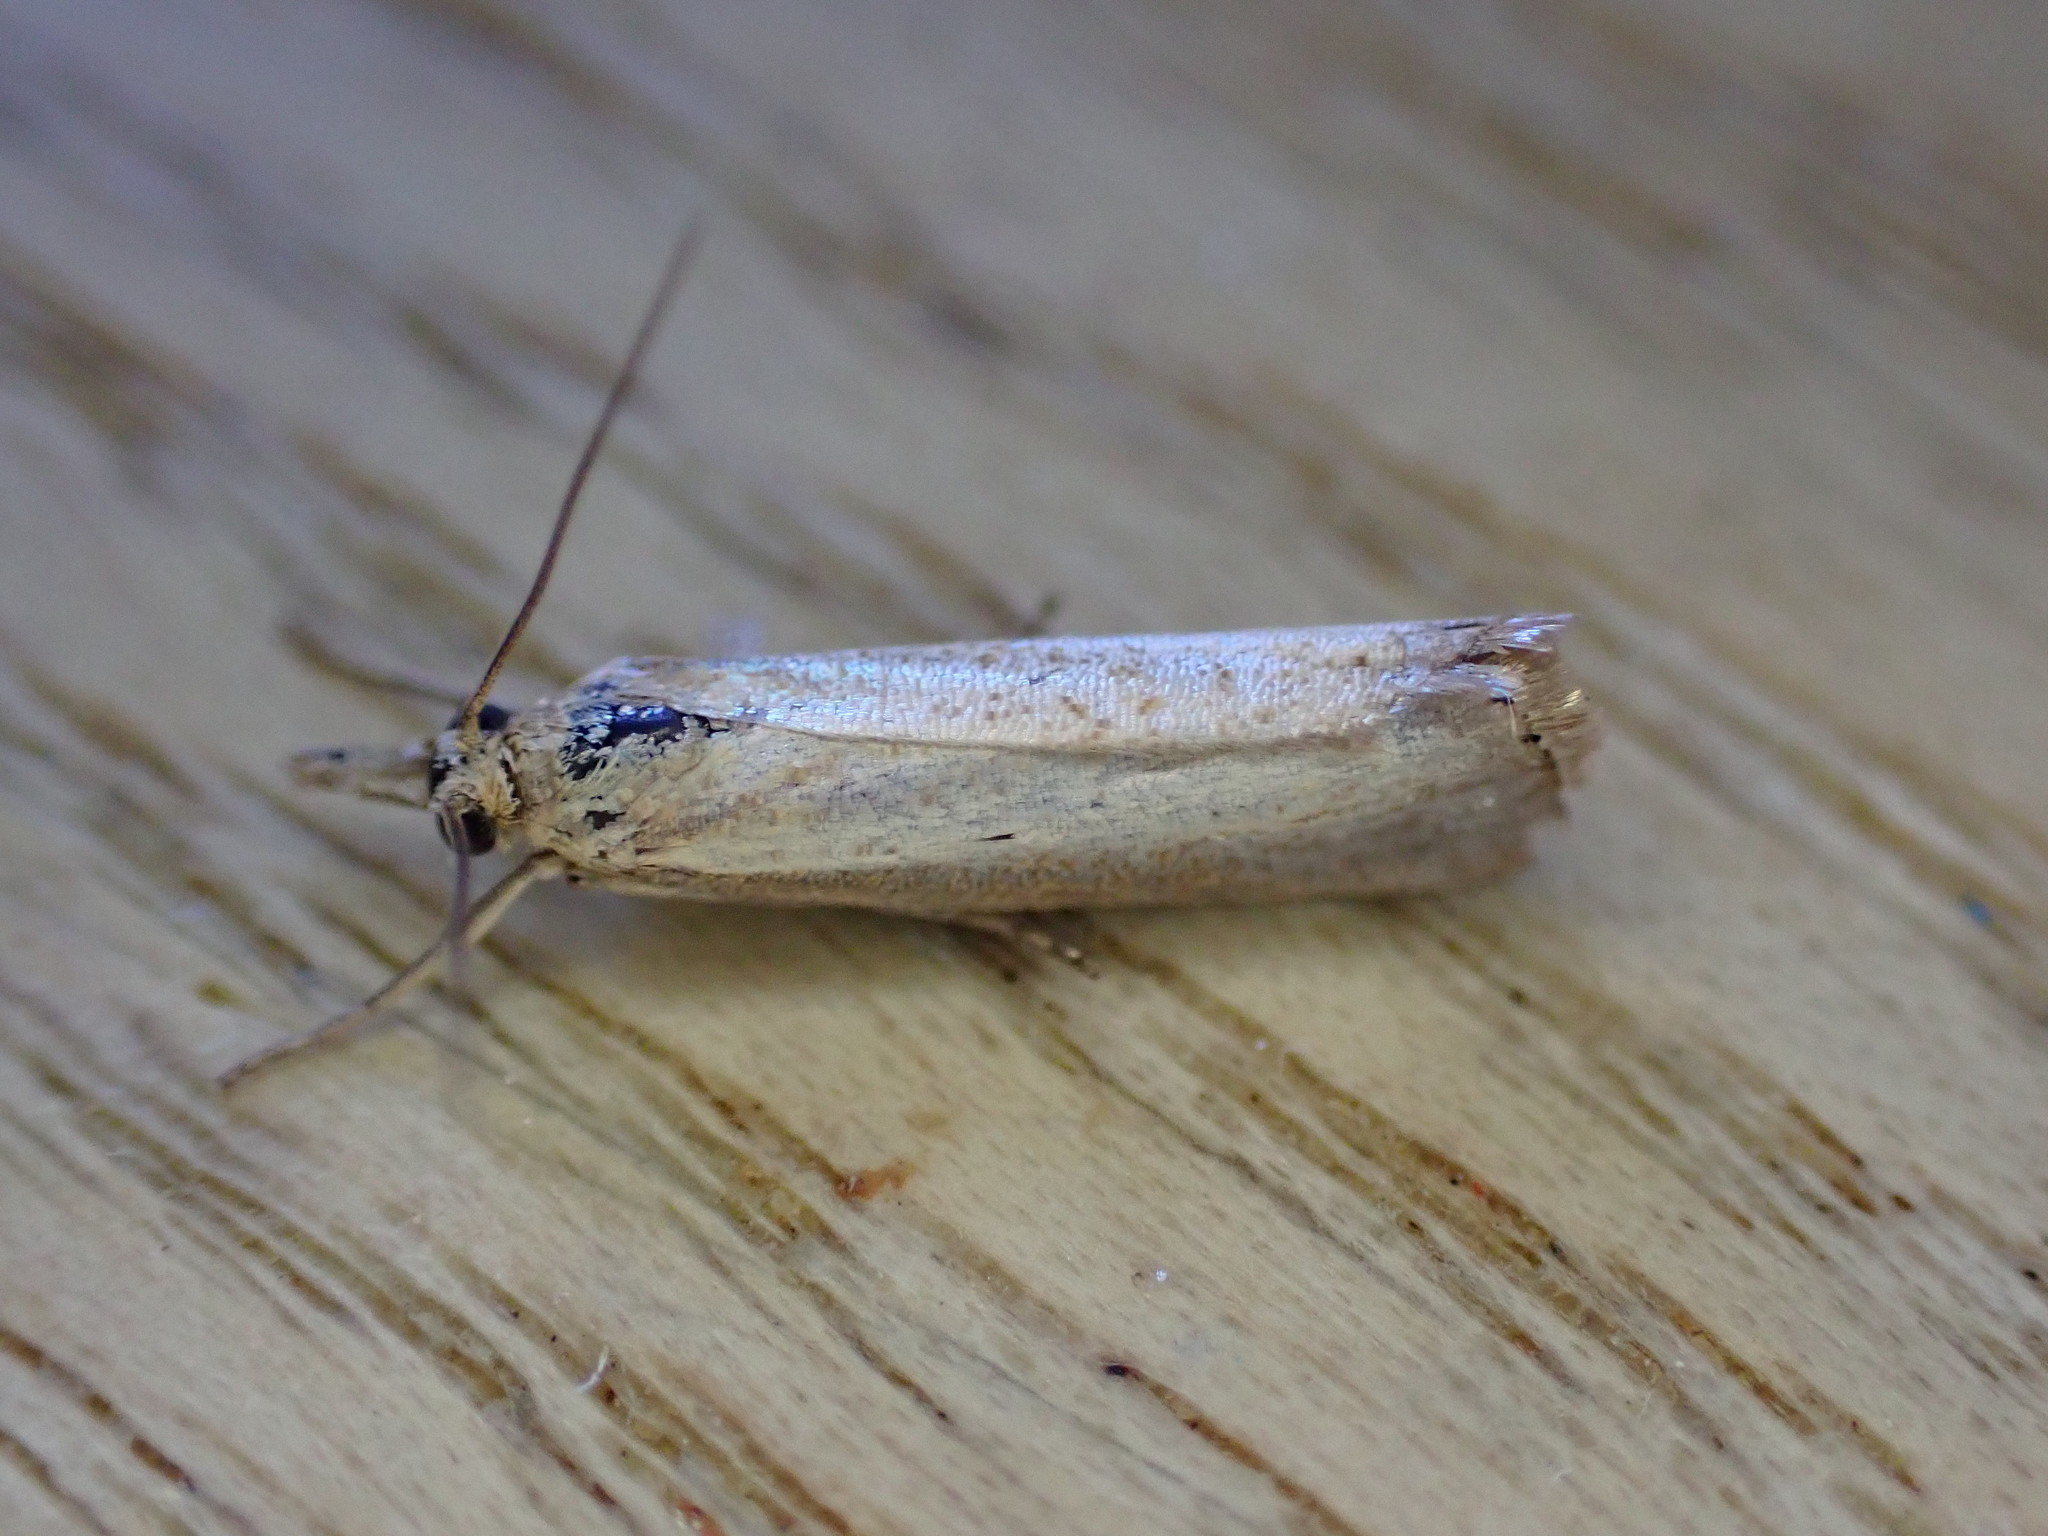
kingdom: Animalia
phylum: Arthropoda
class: Insecta
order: Lepidoptera
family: Crambidae
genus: Agriphila
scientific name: Agriphila straminella
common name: Straw grass-veneer
